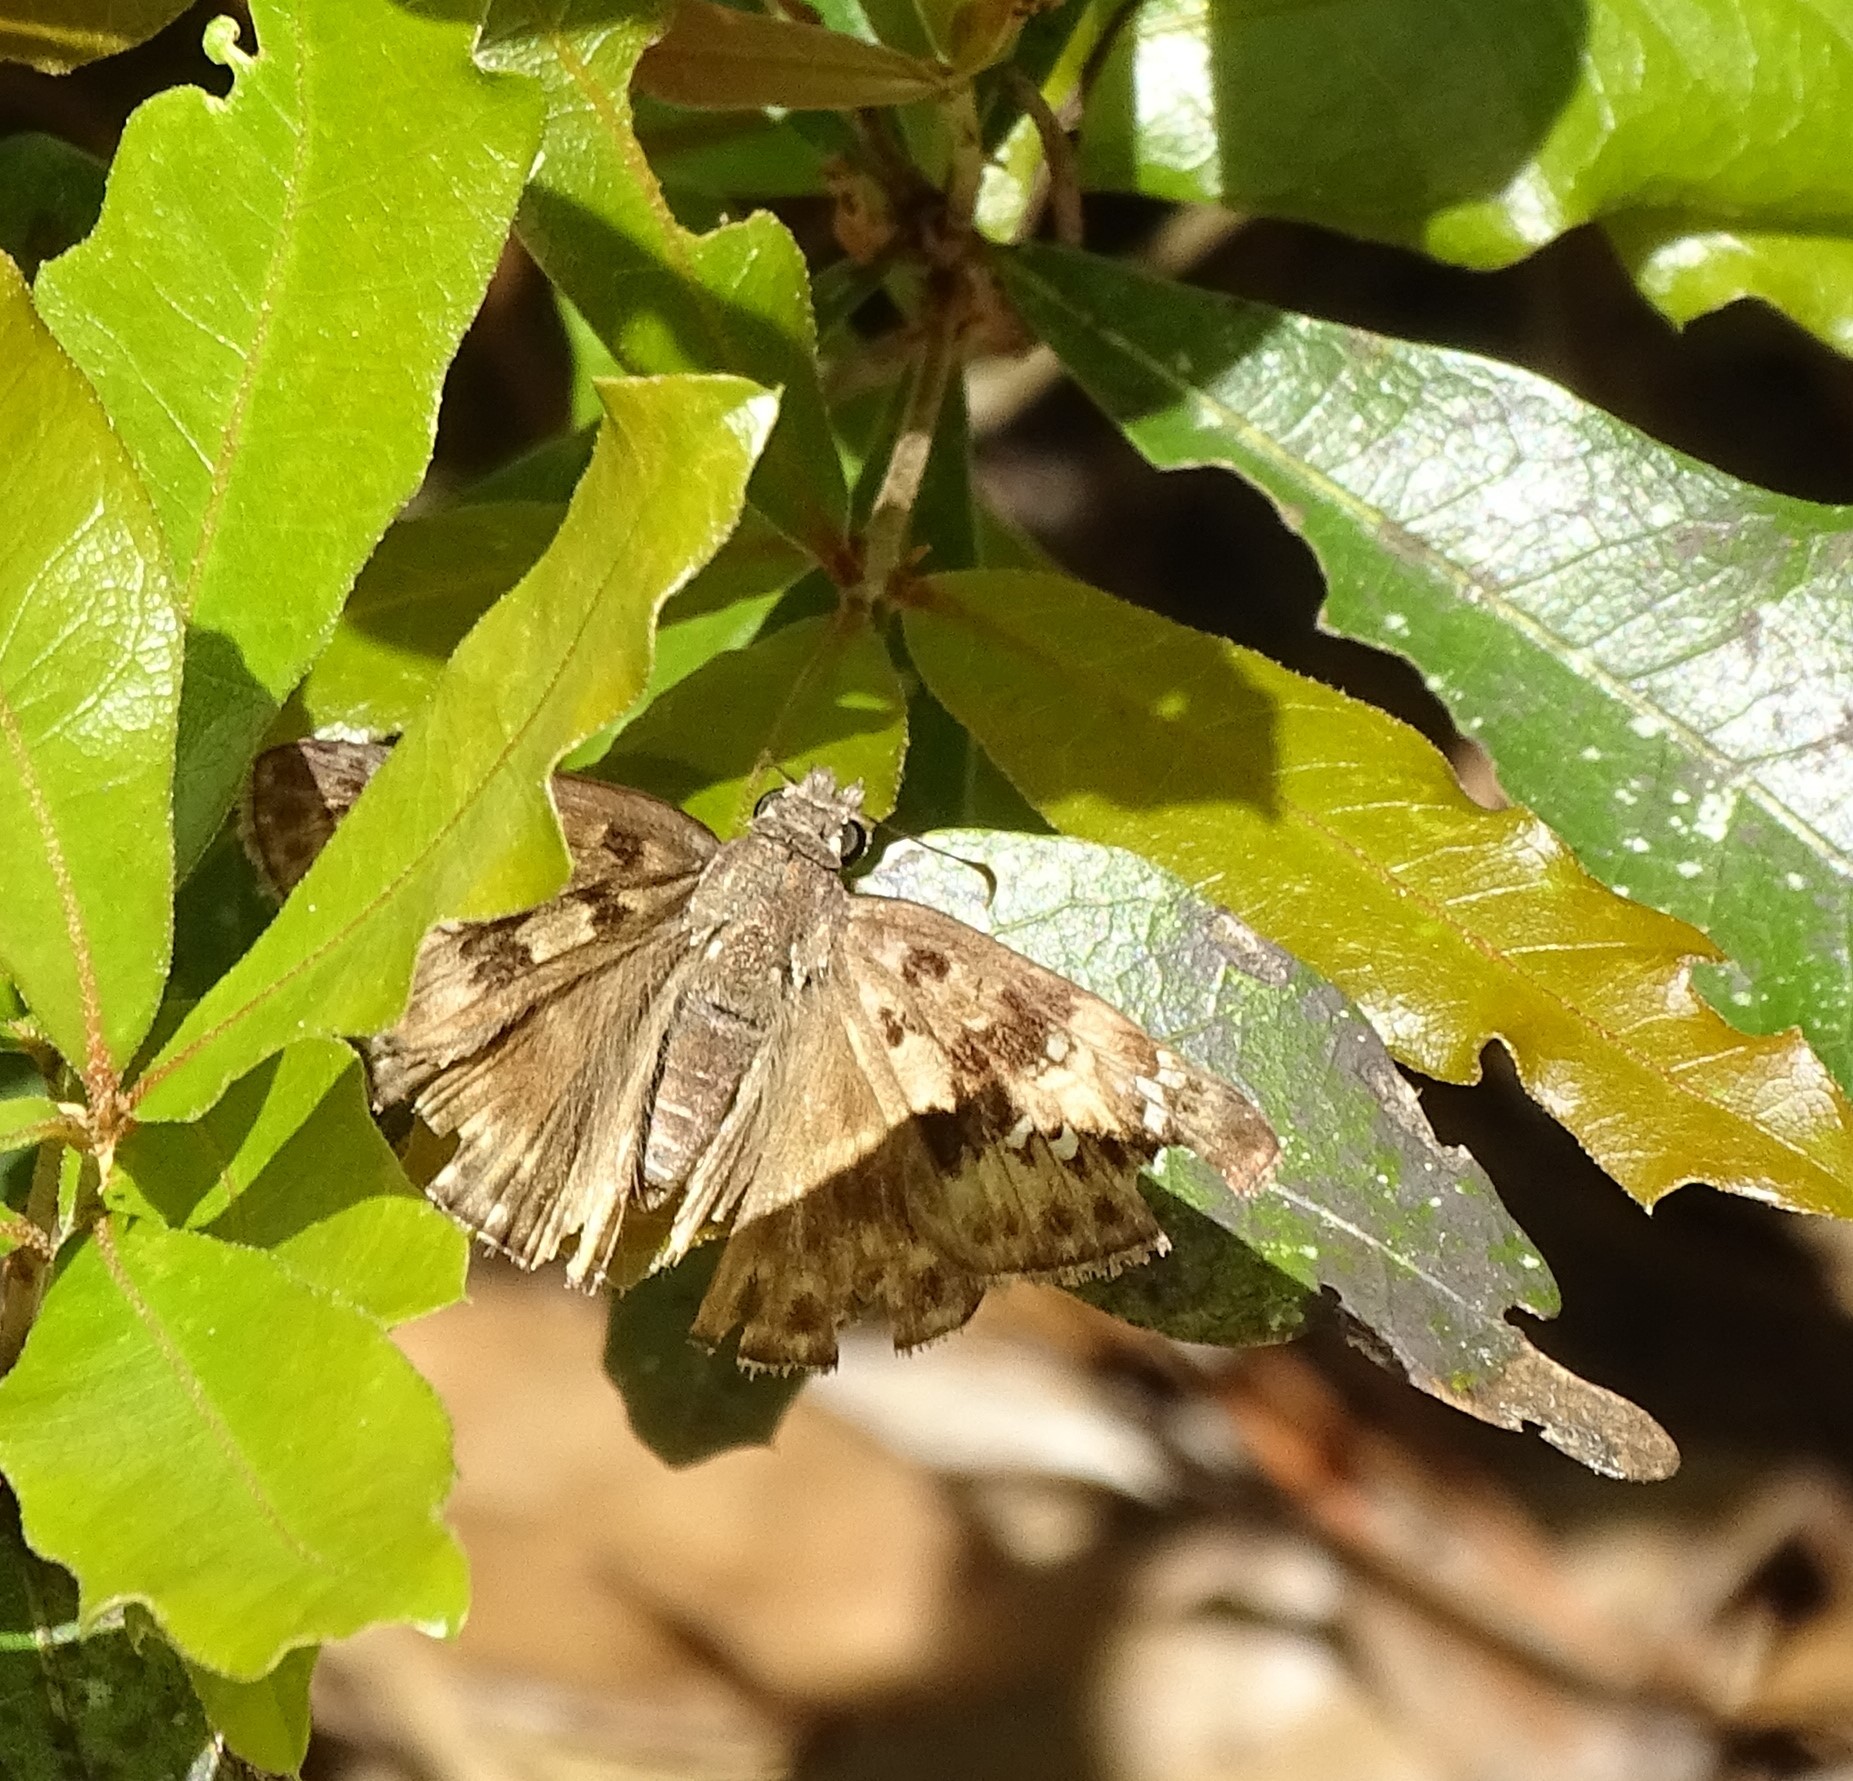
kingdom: Animalia
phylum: Arthropoda
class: Insecta
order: Lepidoptera
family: Hesperiidae
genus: Erynnis
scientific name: Erynnis horatius
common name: Horace's duskywing
